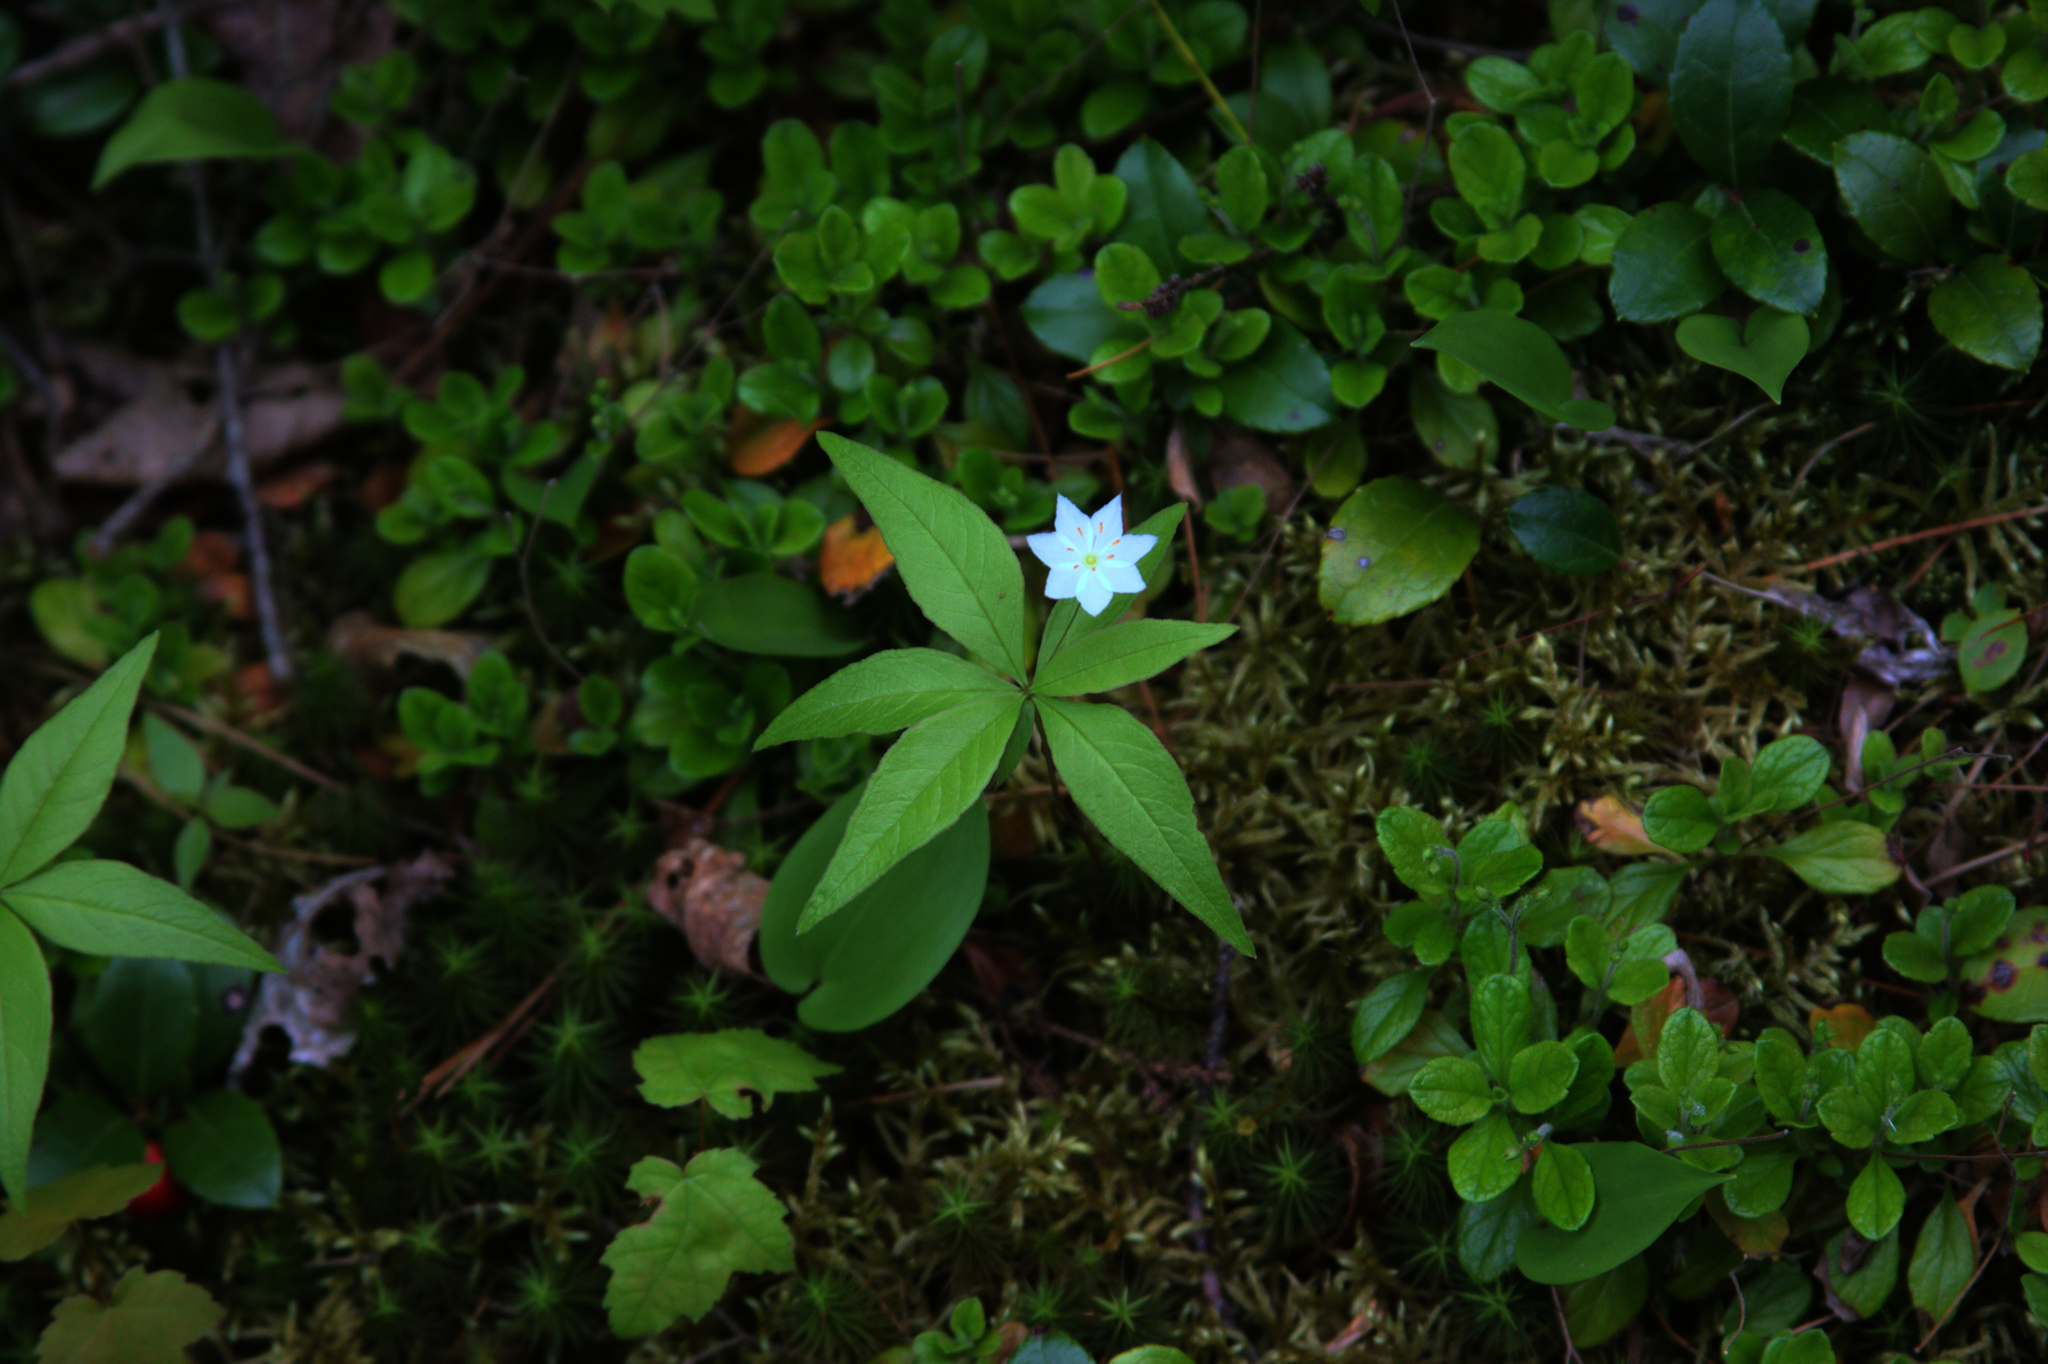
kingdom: Plantae
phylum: Tracheophyta
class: Magnoliopsida
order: Ericales
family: Primulaceae
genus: Lysimachia
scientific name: Lysimachia borealis
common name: American starflower
